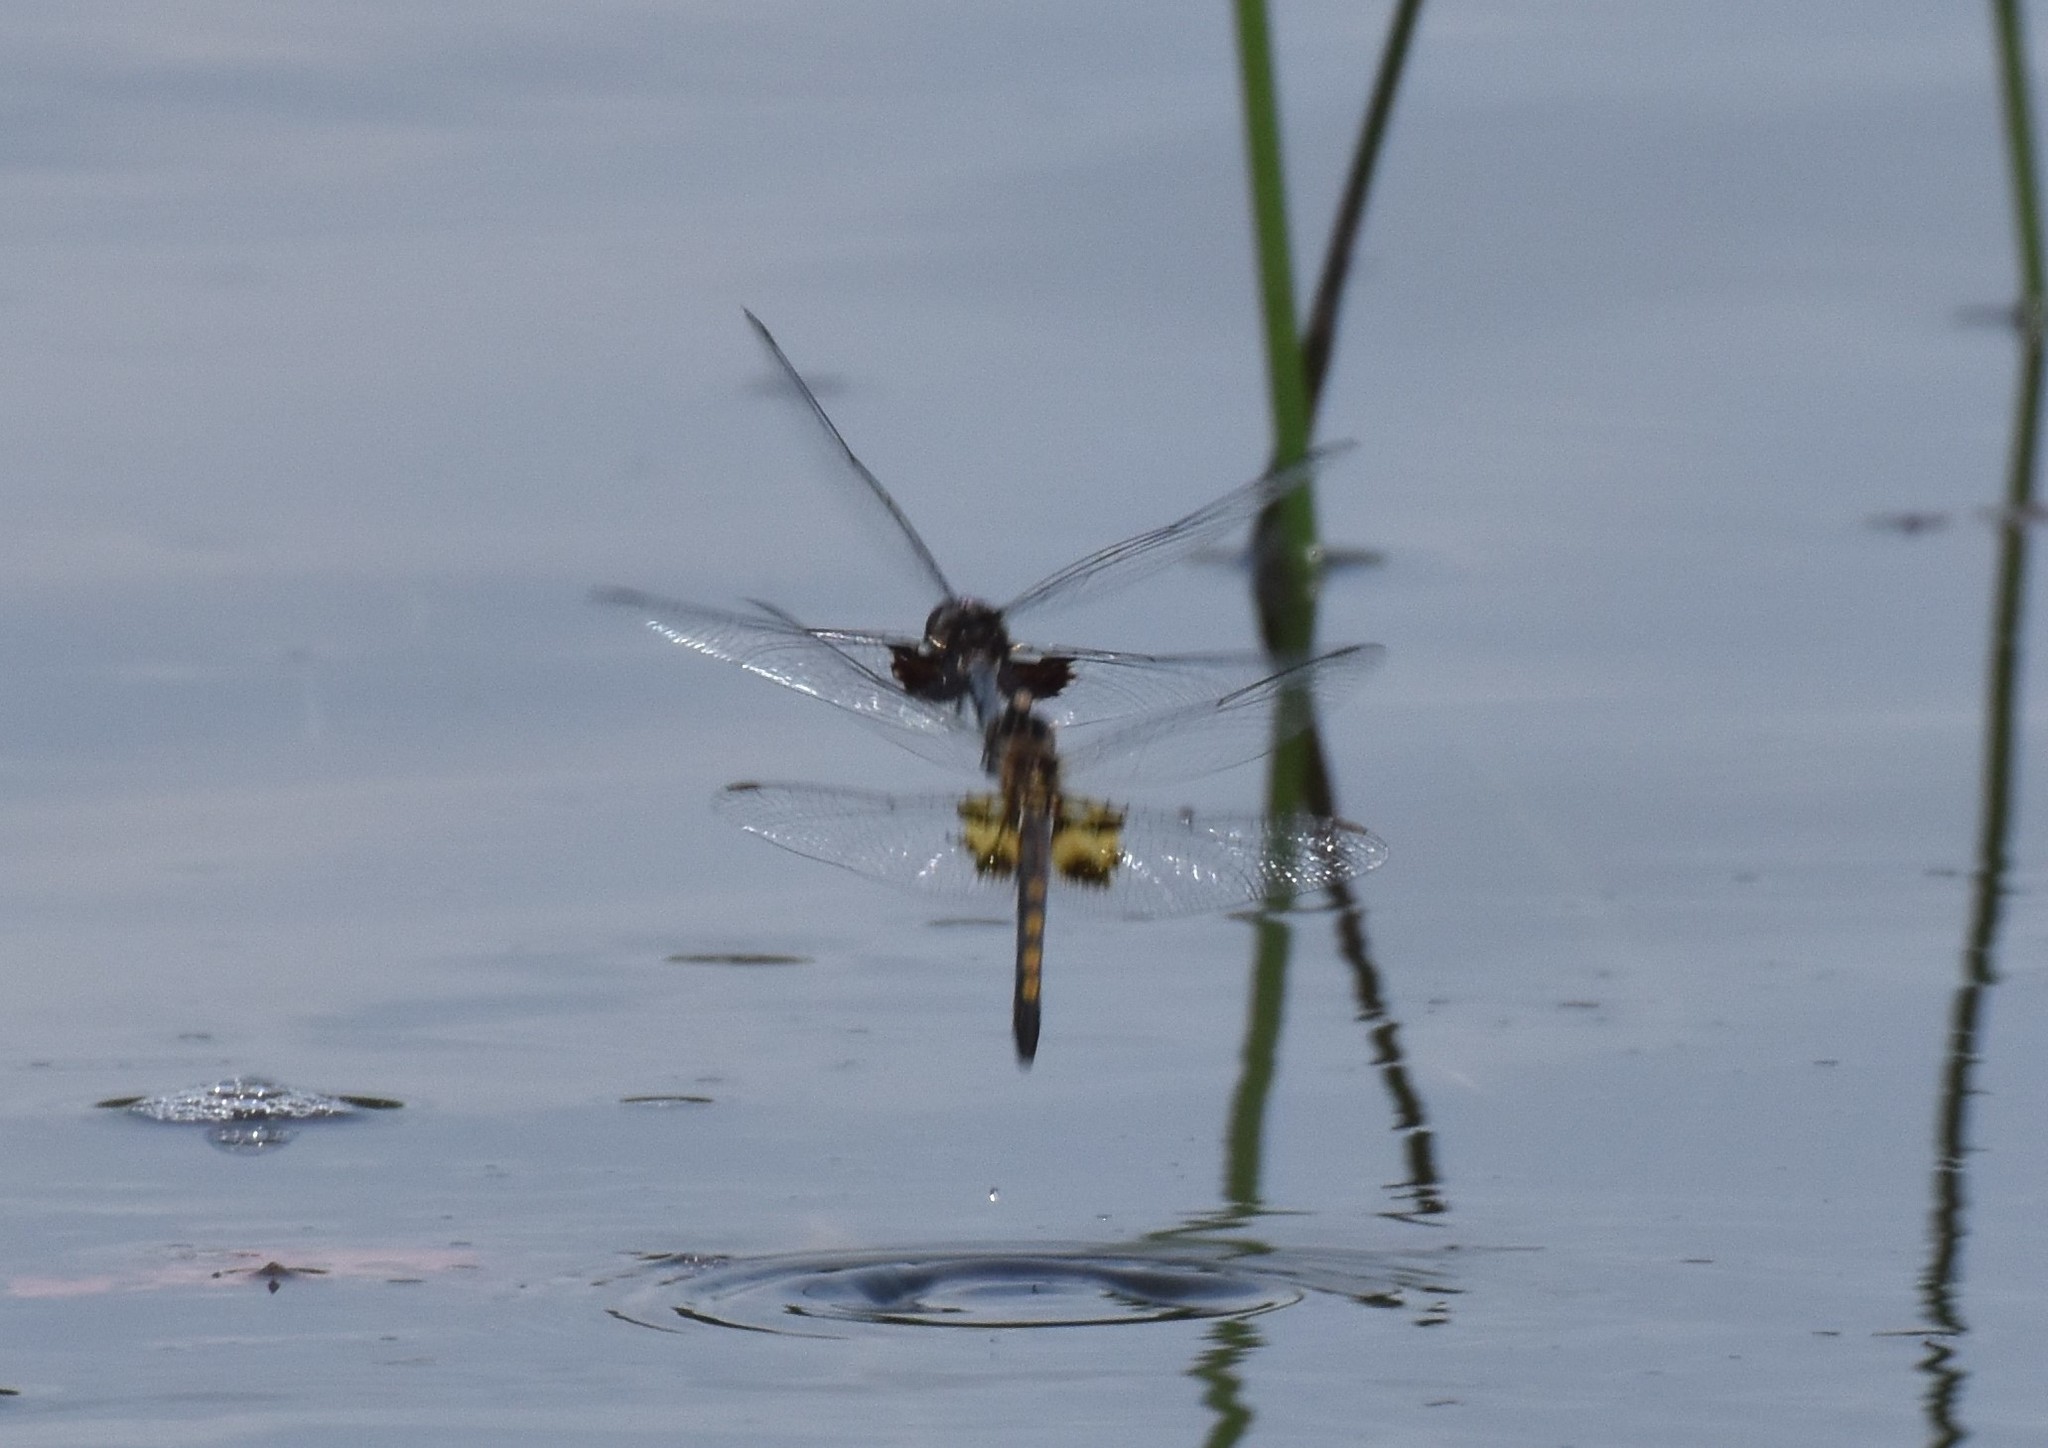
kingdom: Animalia
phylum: Arthropoda
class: Insecta
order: Odonata
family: Libellulidae
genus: Celithemis
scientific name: Celithemis martha
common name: Martha's pennant
